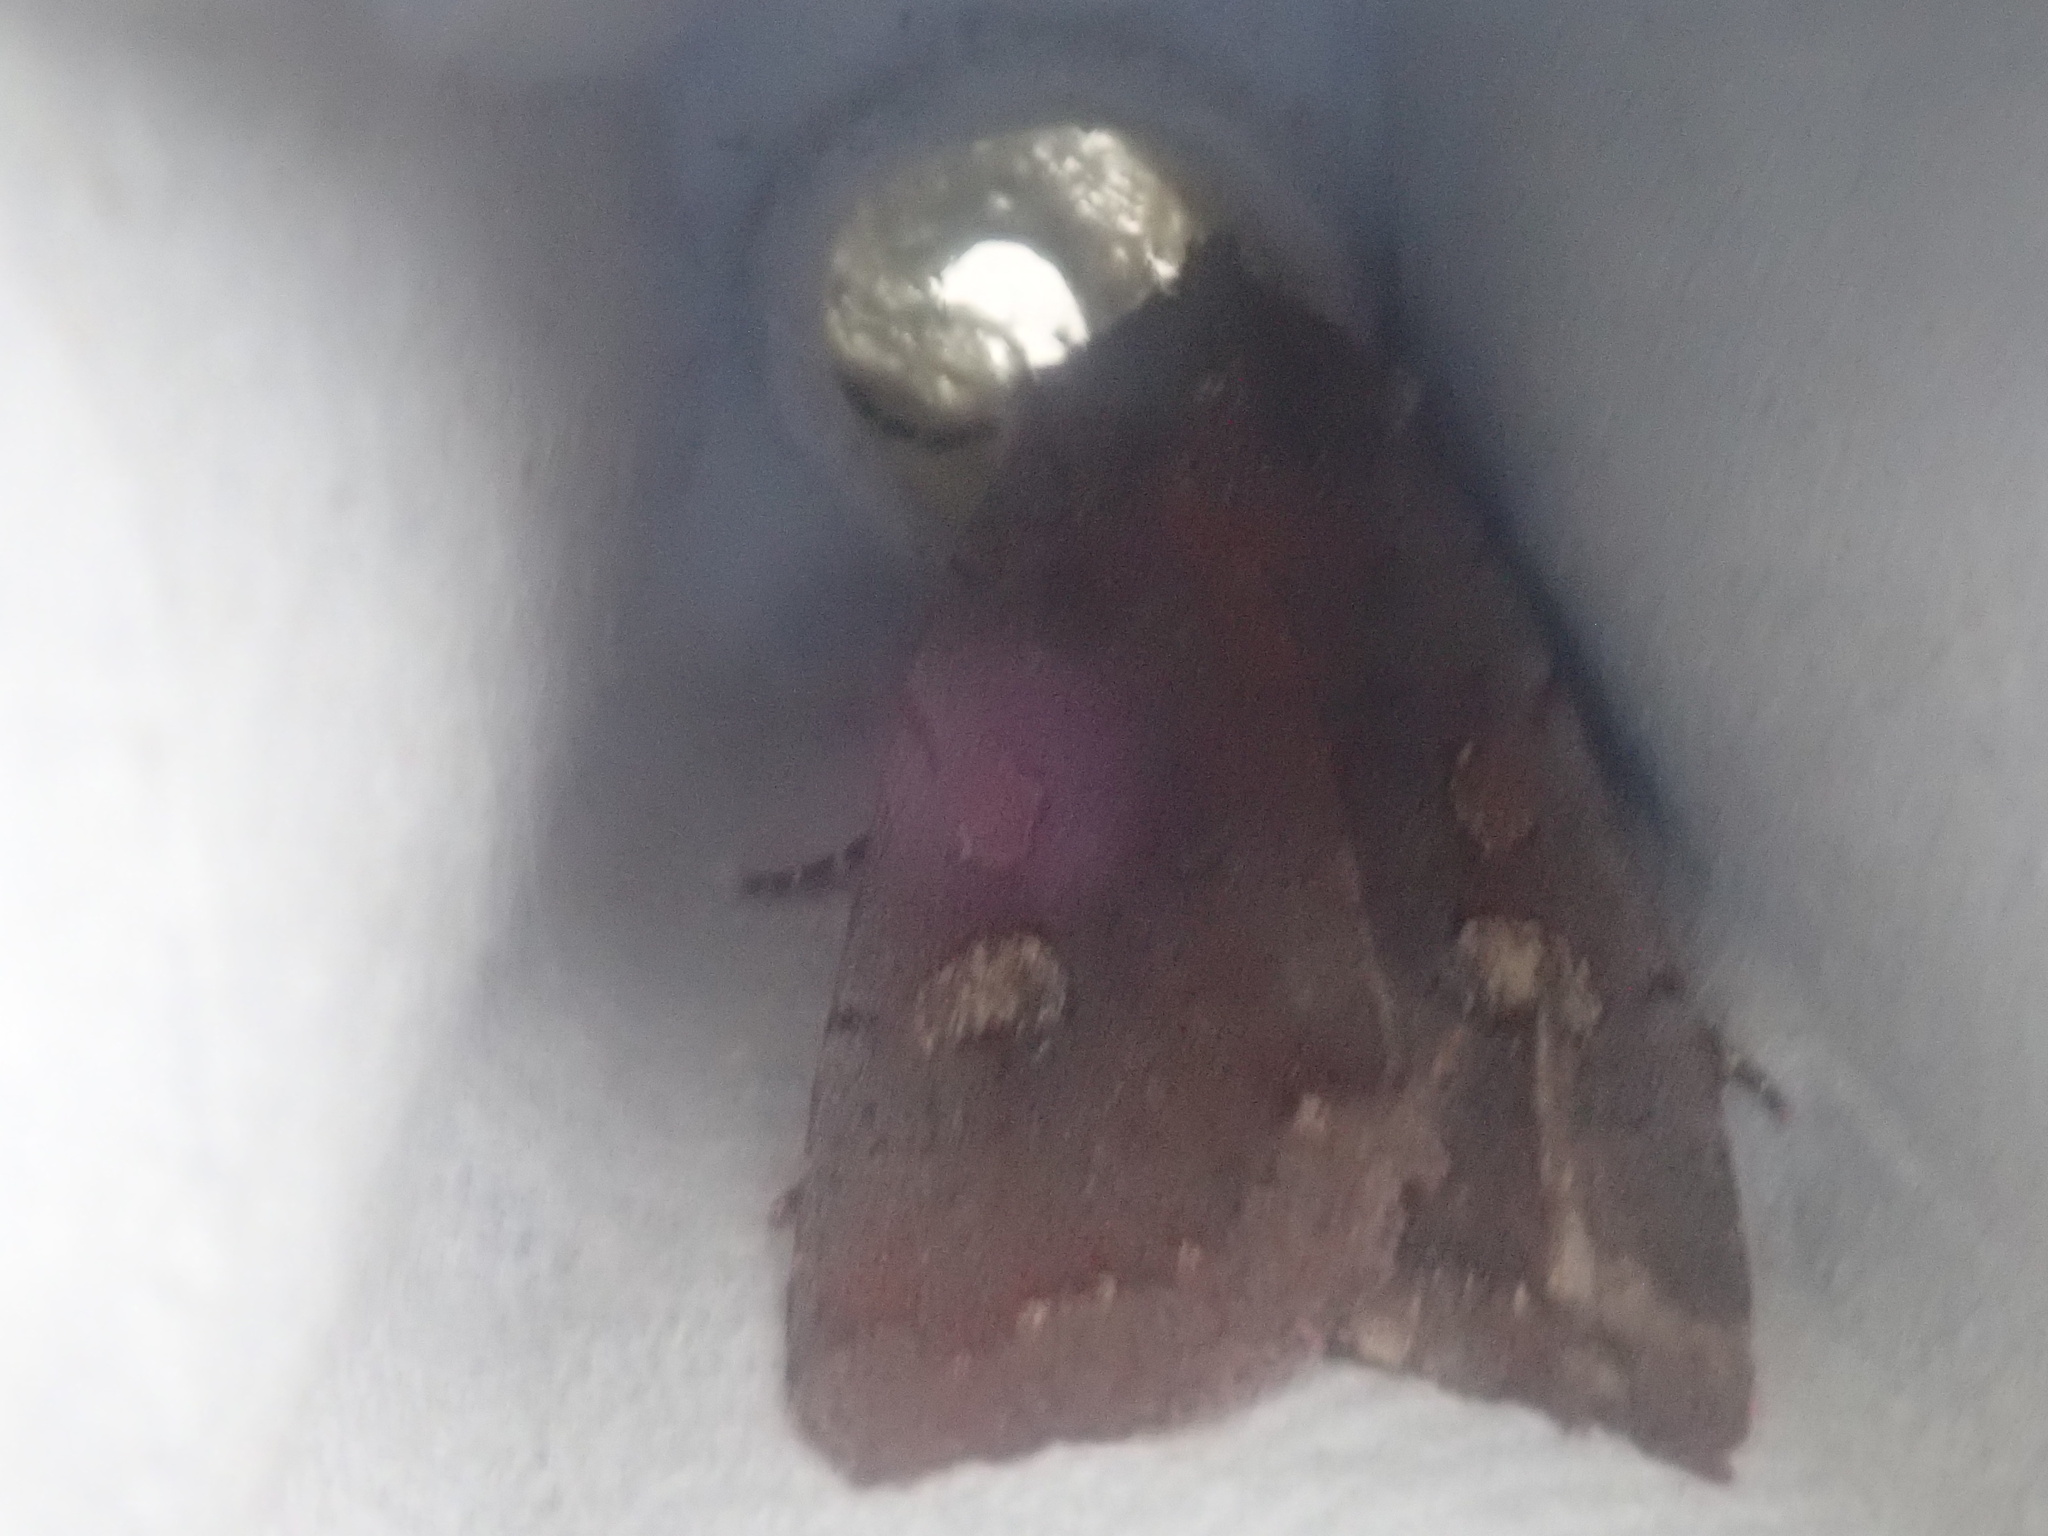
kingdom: Animalia
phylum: Arthropoda
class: Insecta
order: Lepidoptera
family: Noctuidae
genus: Xestia
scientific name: Xestia dilucida
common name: Dull reddish dart
